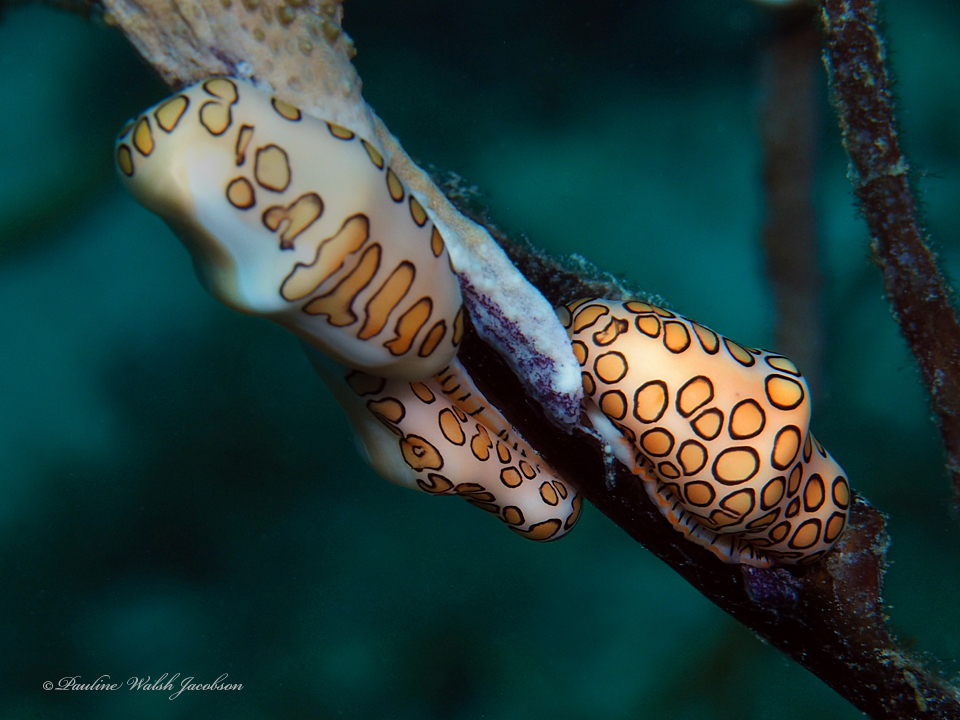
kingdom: Animalia
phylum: Mollusca
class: Gastropoda
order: Littorinimorpha
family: Ovulidae
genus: Cyphoma
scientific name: Cyphoma gibbosum
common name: Flamingo tongue
